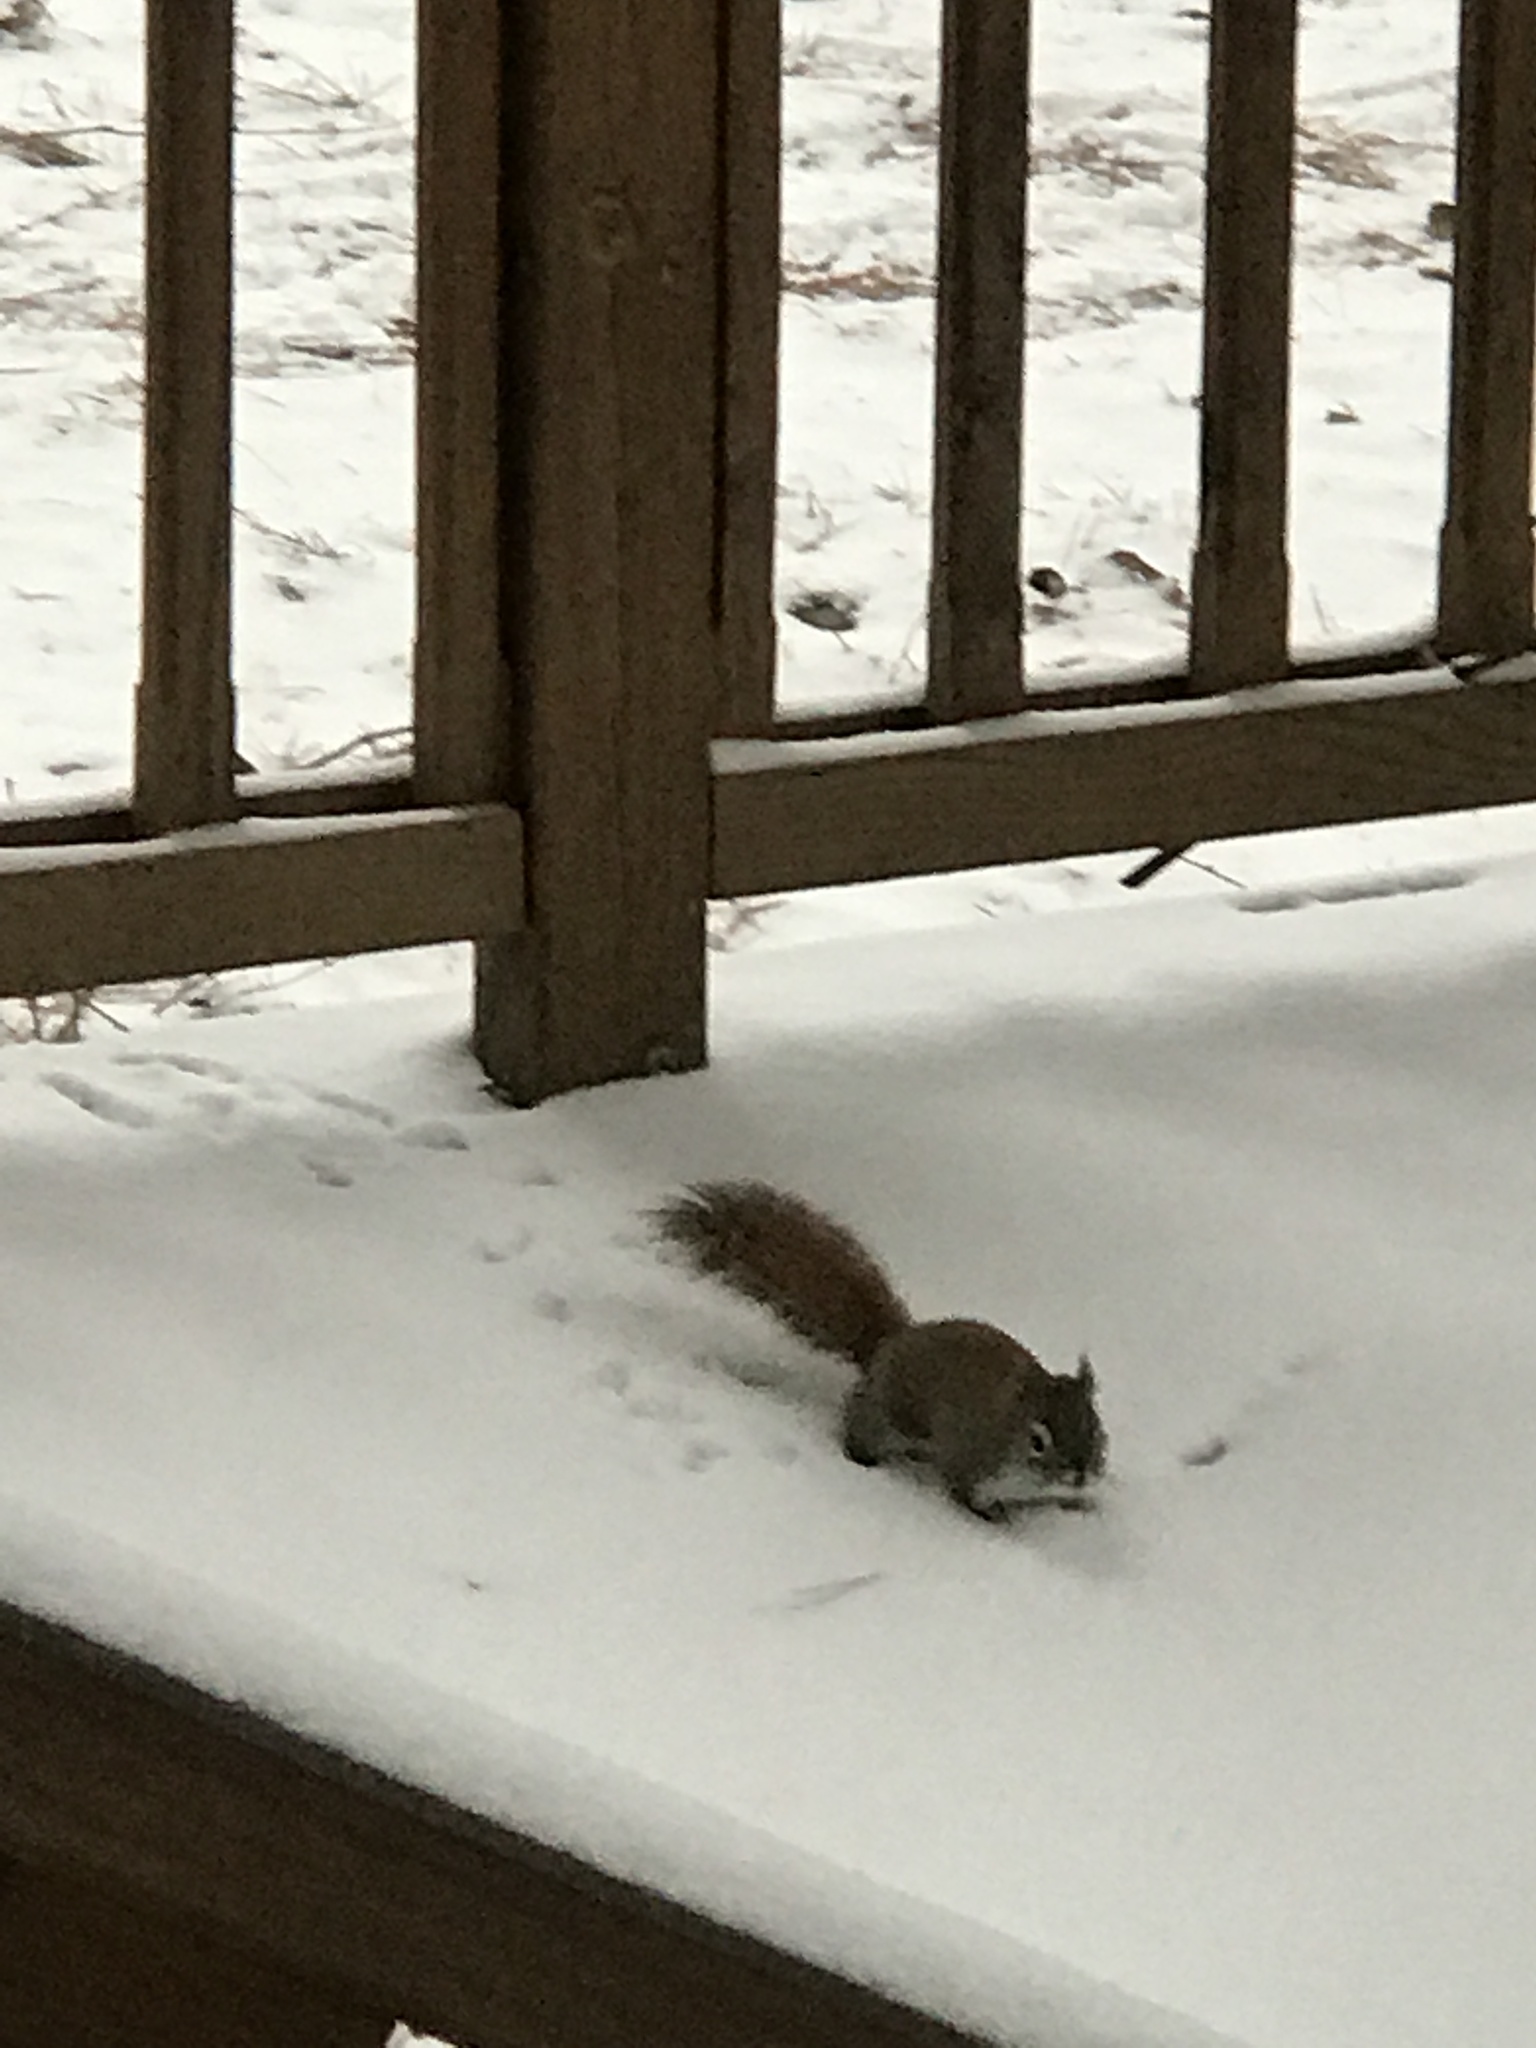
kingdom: Animalia
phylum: Chordata
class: Mammalia
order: Rodentia
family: Sciuridae
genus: Tamiasciurus
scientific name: Tamiasciurus hudsonicus
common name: Red squirrel
